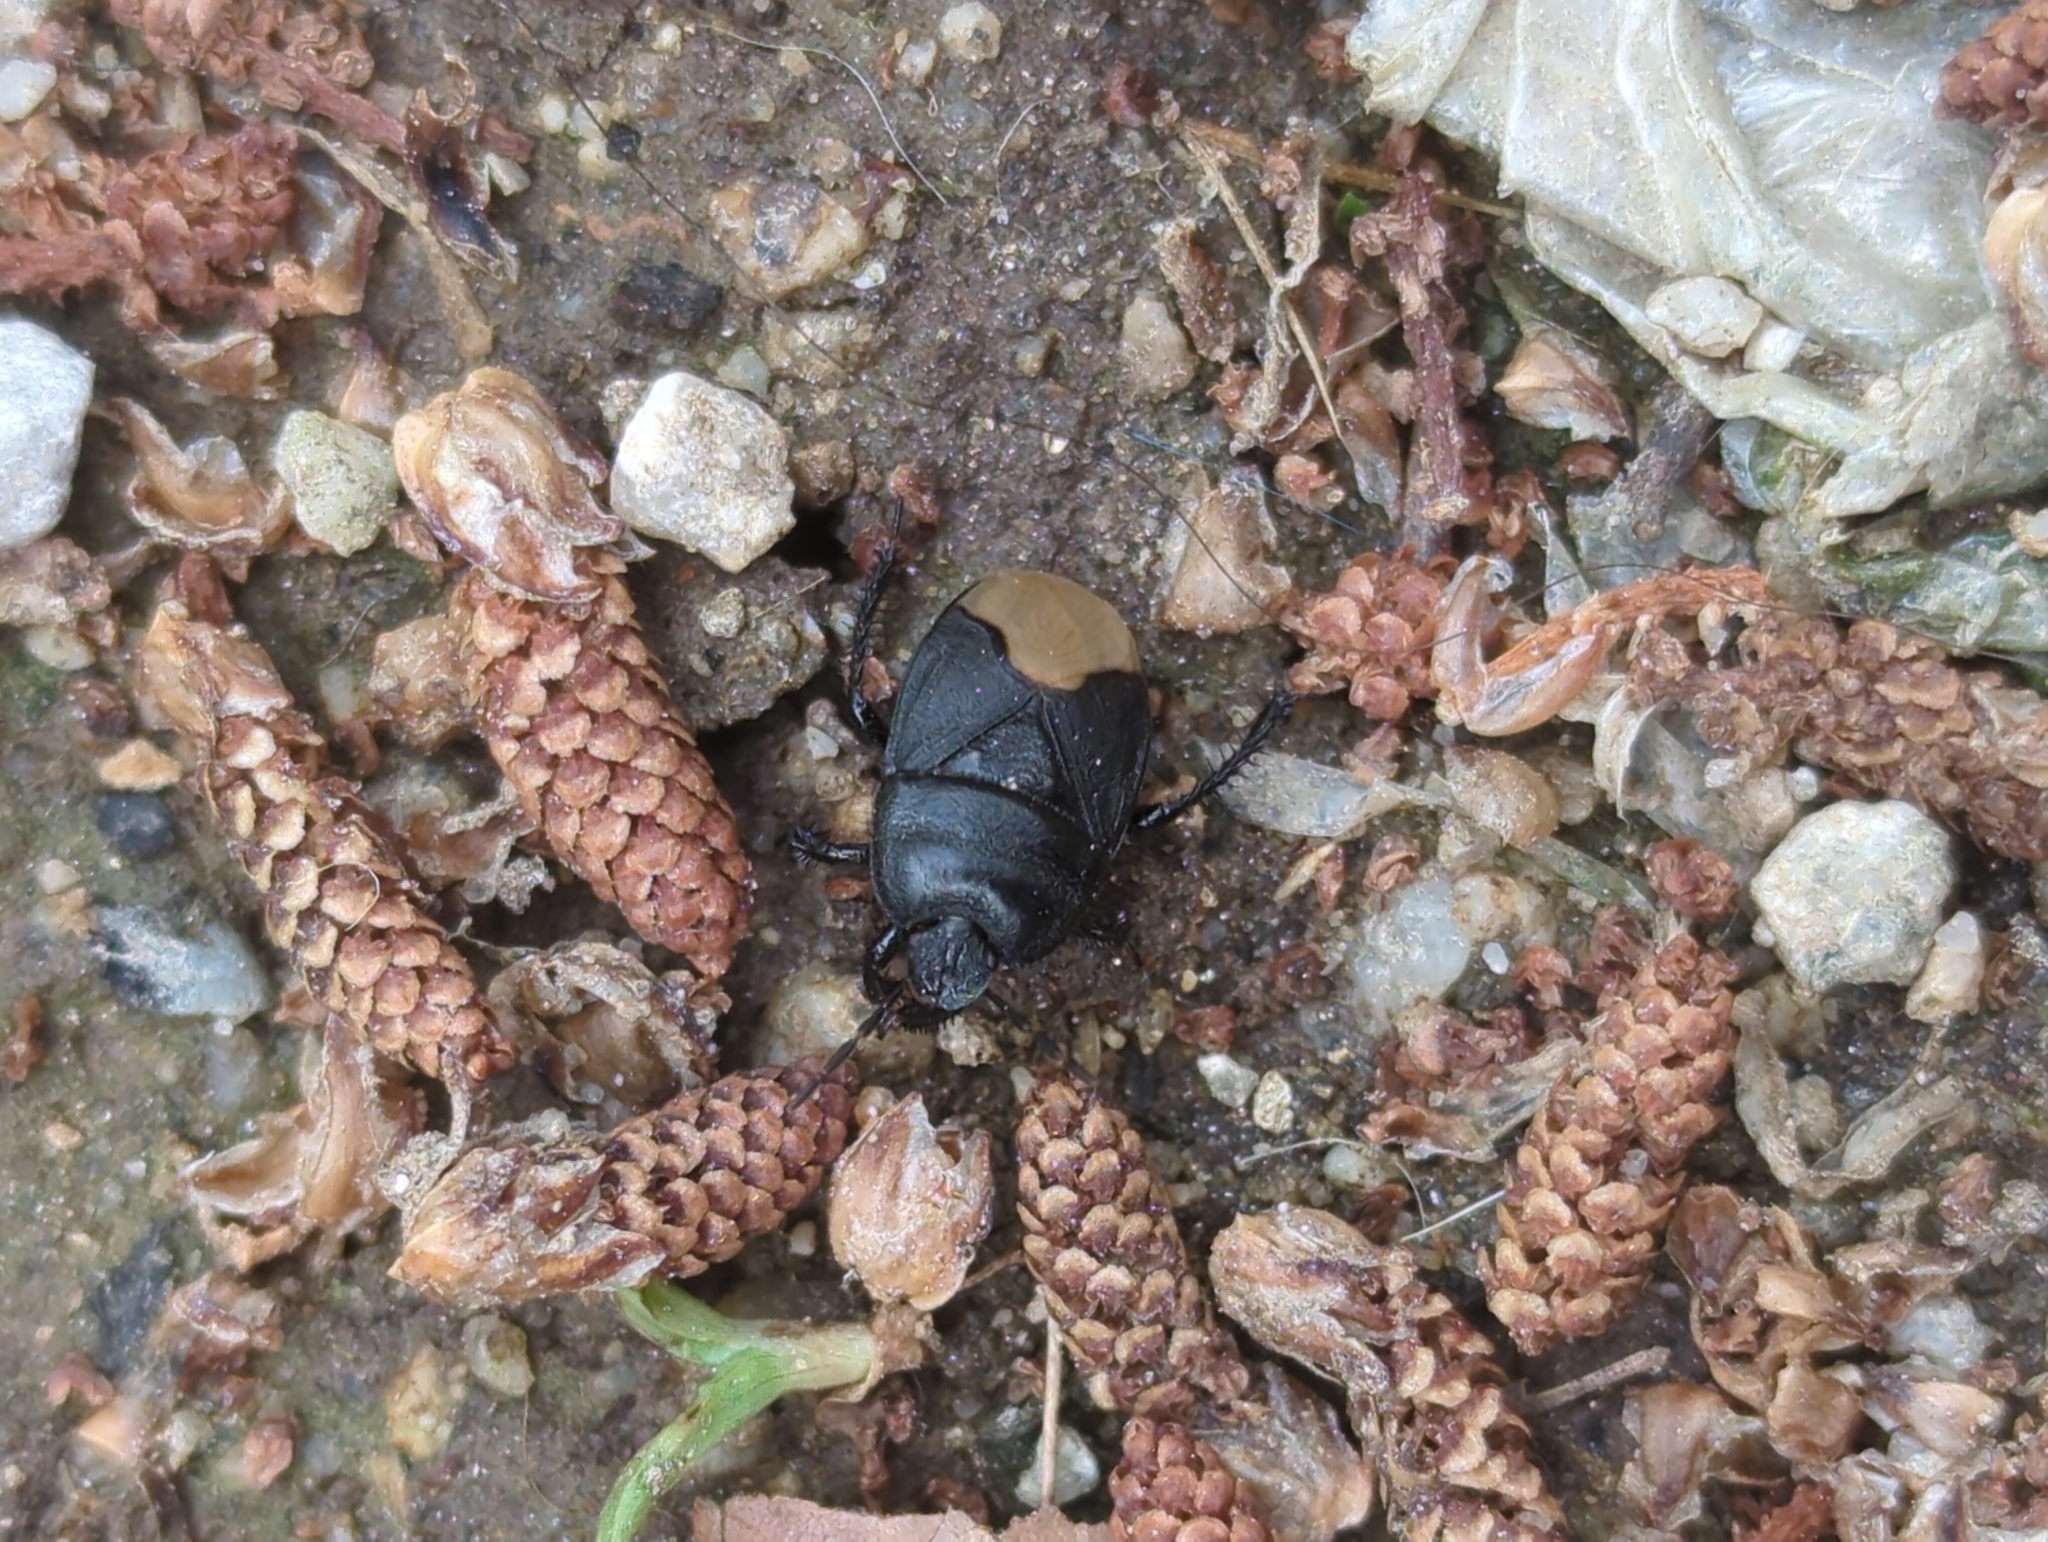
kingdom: Animalia
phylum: Arthropoda
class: Insecta
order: Hemiptera
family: Cydnidae
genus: Cydnus
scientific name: Cydnus aterrimus
